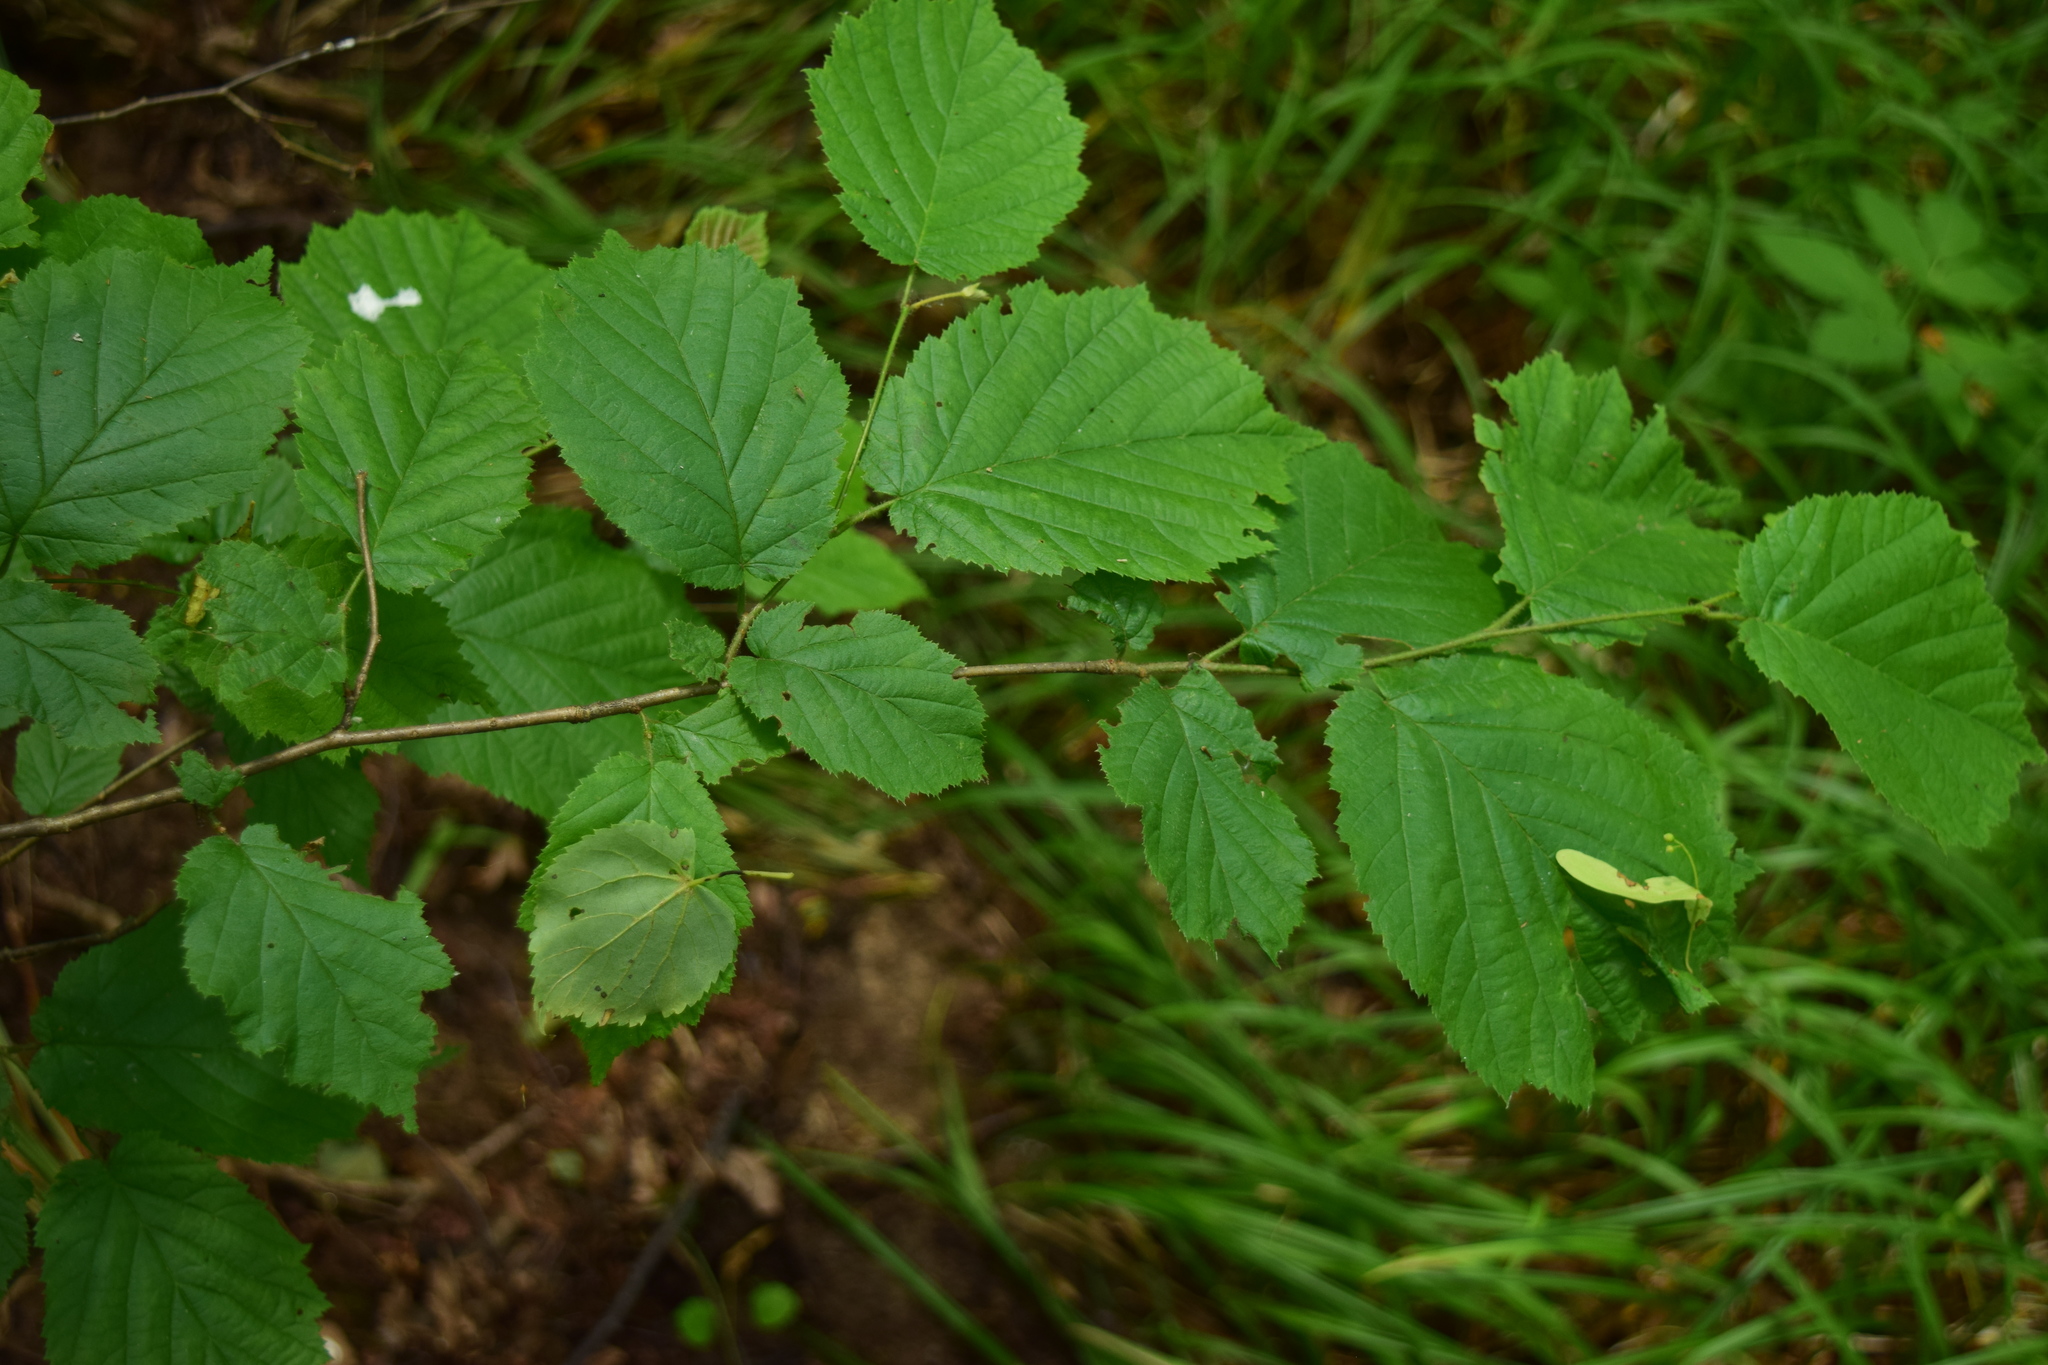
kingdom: Plantae
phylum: Tracheophyta
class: Magnoliopsida
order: Fagales
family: Betulaceae
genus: Corylus
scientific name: Corylus avellana
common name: European hazel
